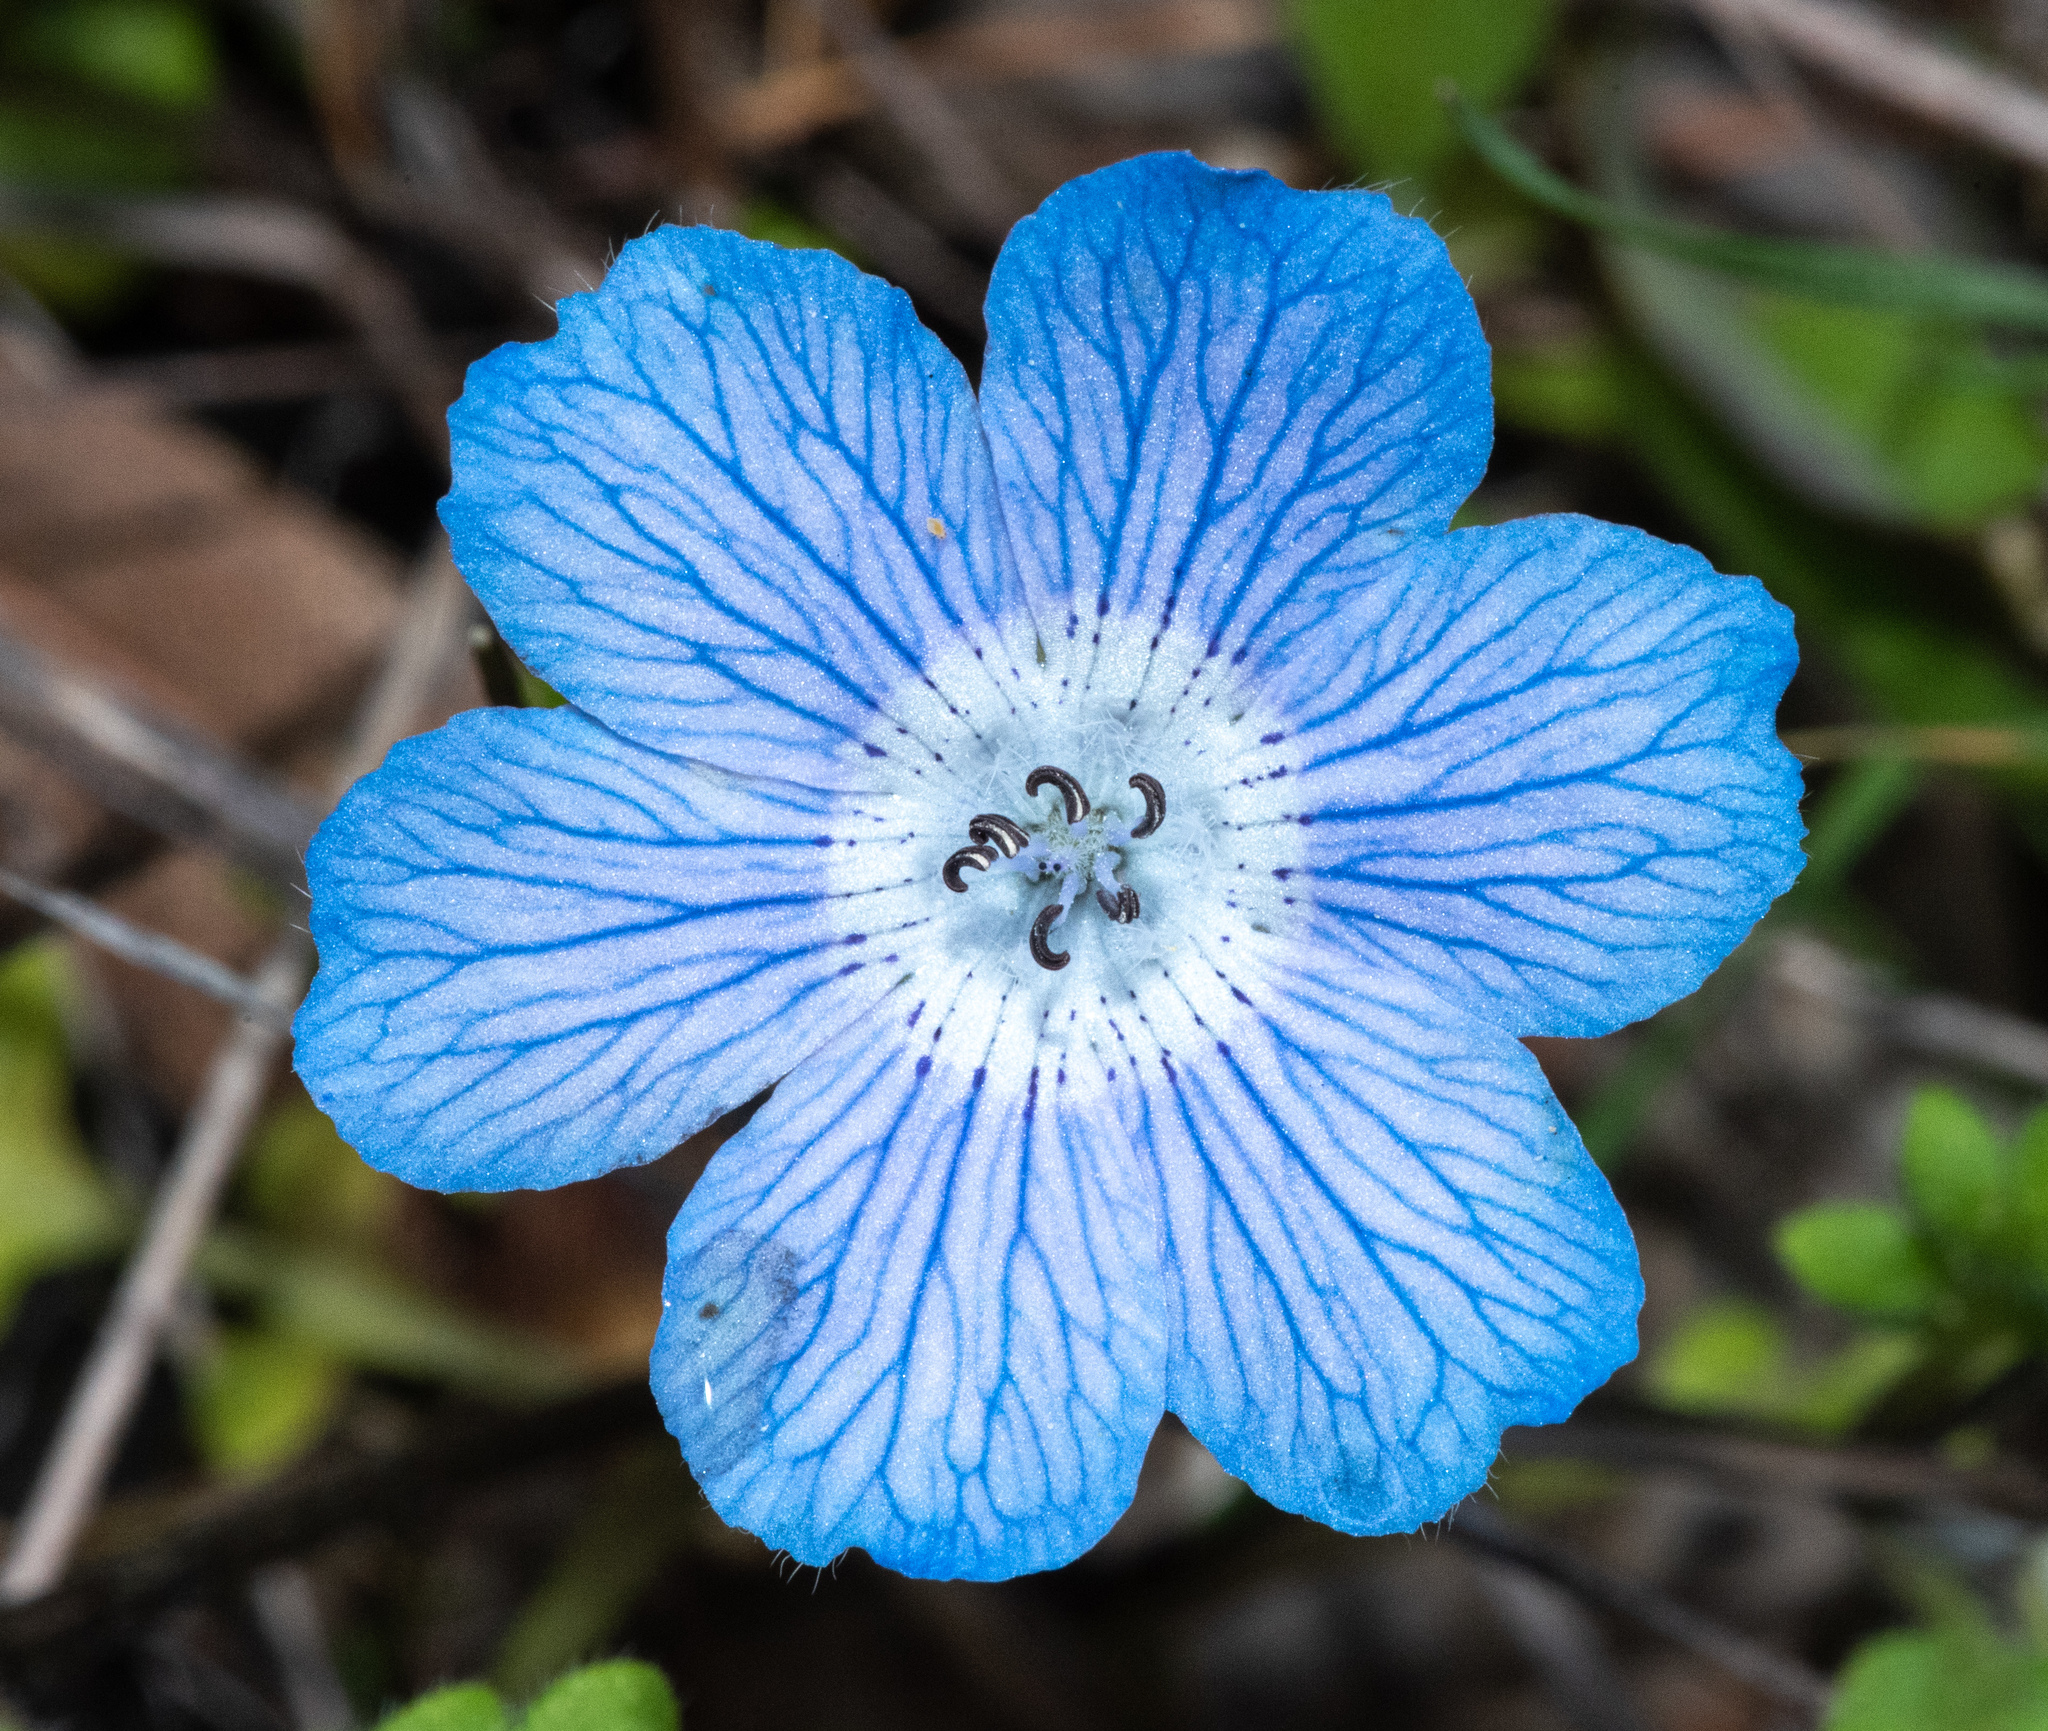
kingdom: Plantae
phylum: Tracheophyta
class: Magnoliopsida
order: Boraginales
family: Hydrophyllaceae
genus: Nemophila
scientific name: Nemophila menziesii
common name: Baby's-blue-eyes
